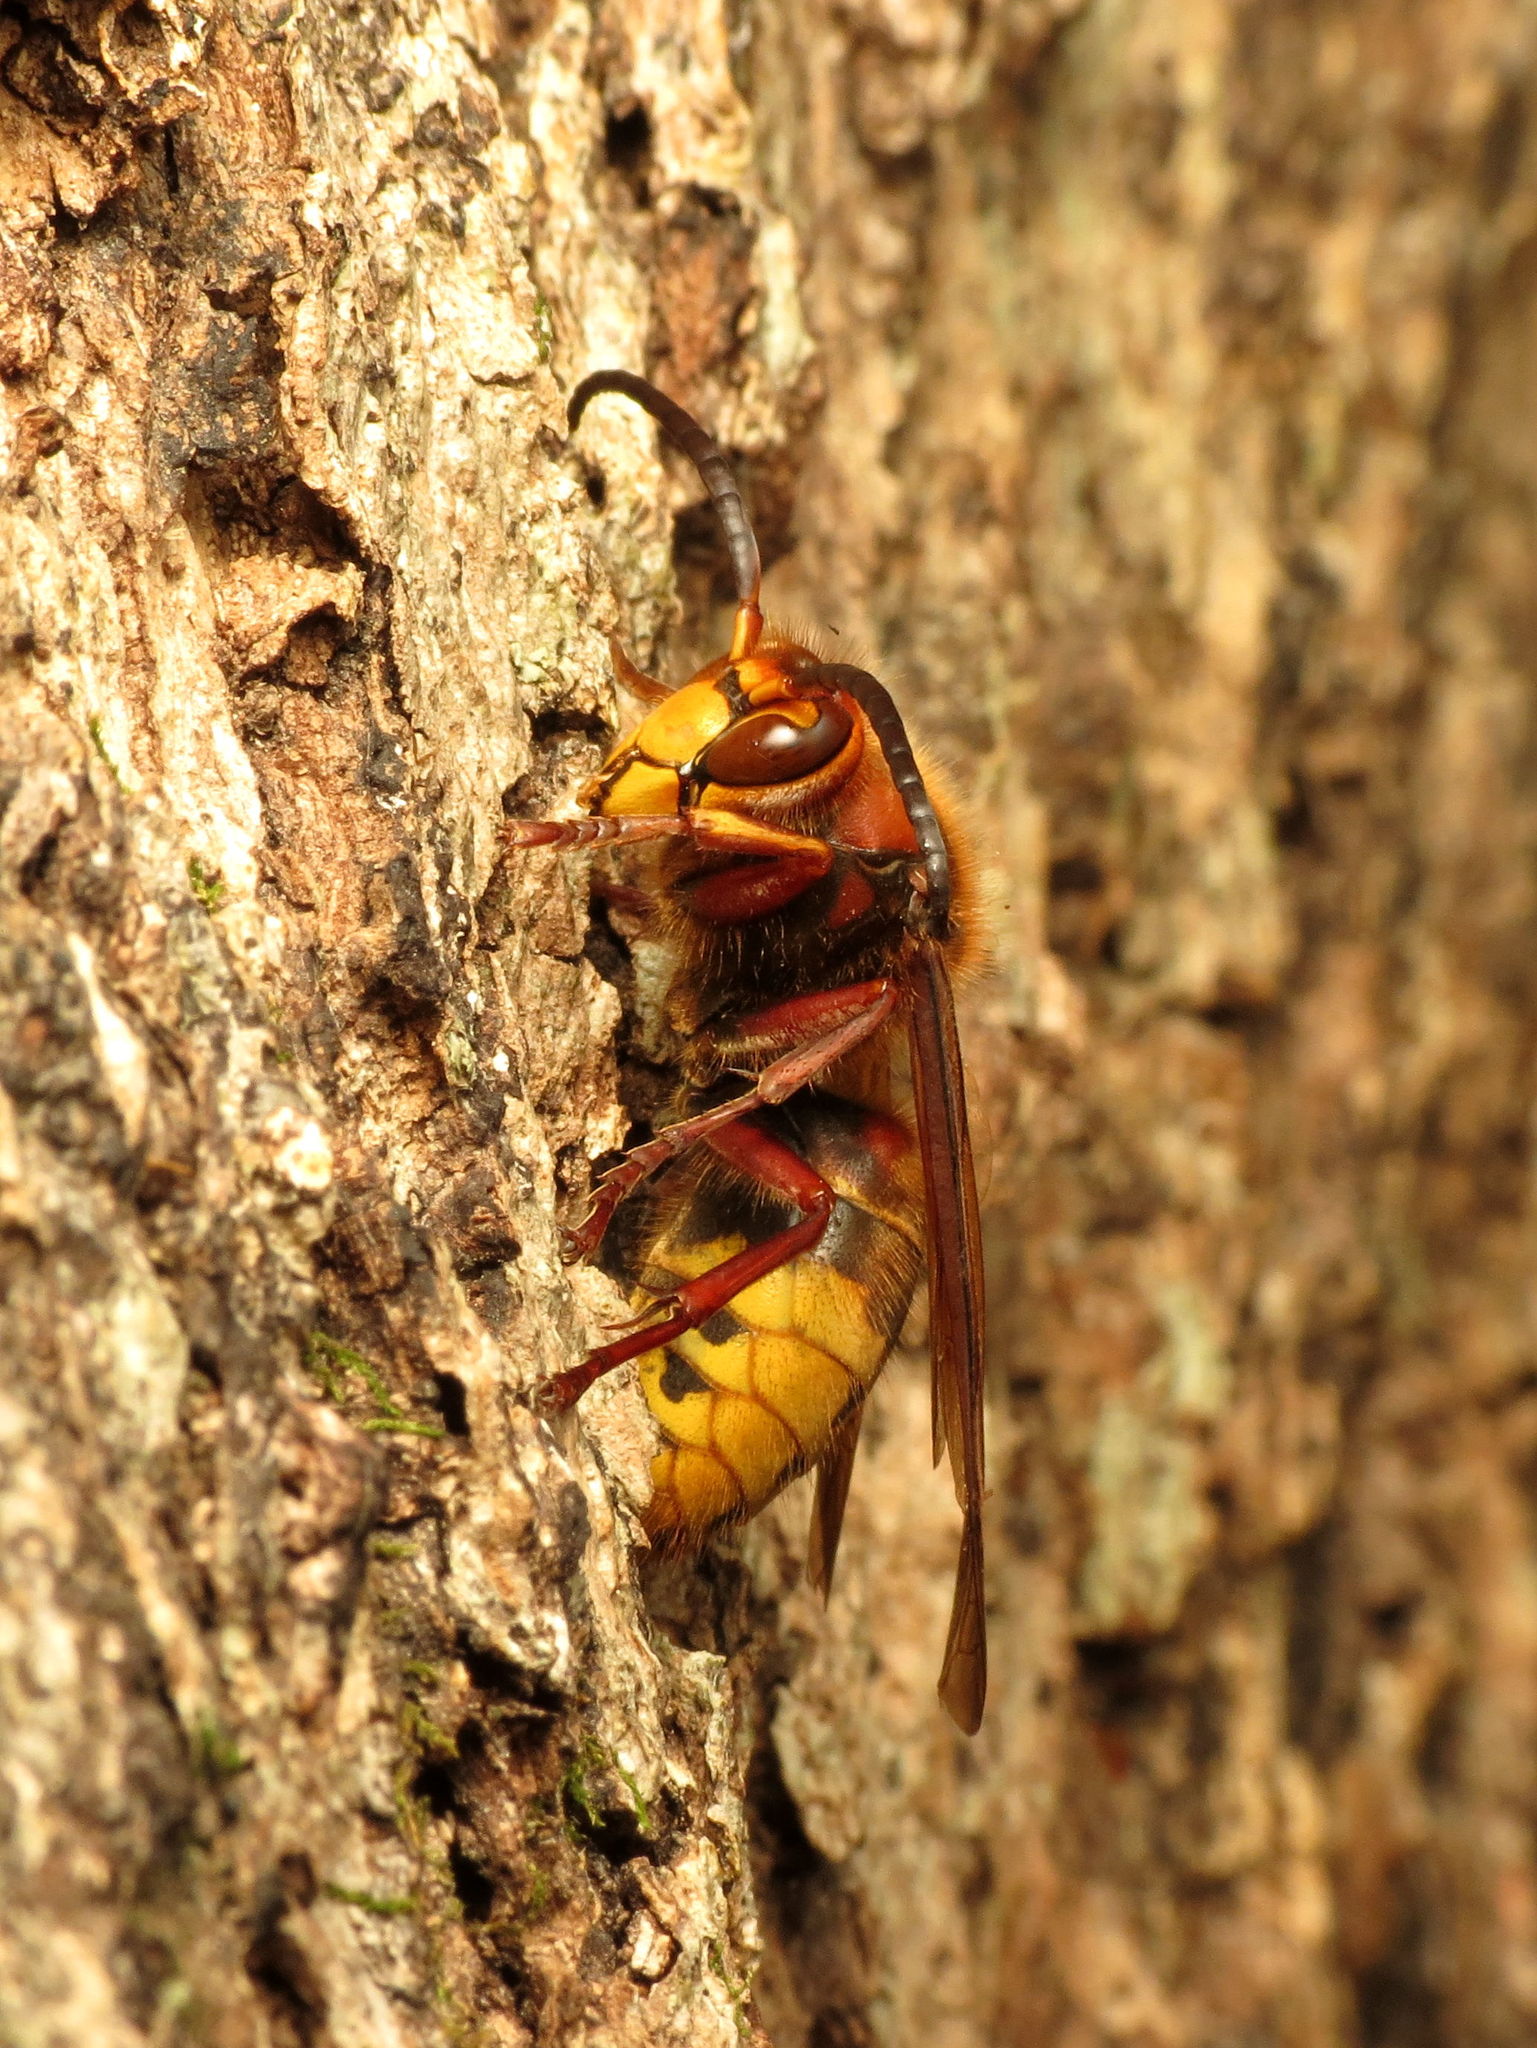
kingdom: Animalia
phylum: Arthropoda
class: Insecta
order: Hymenoptera
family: Vespidae
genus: Vespa
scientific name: Vespa crabro
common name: Hornet
